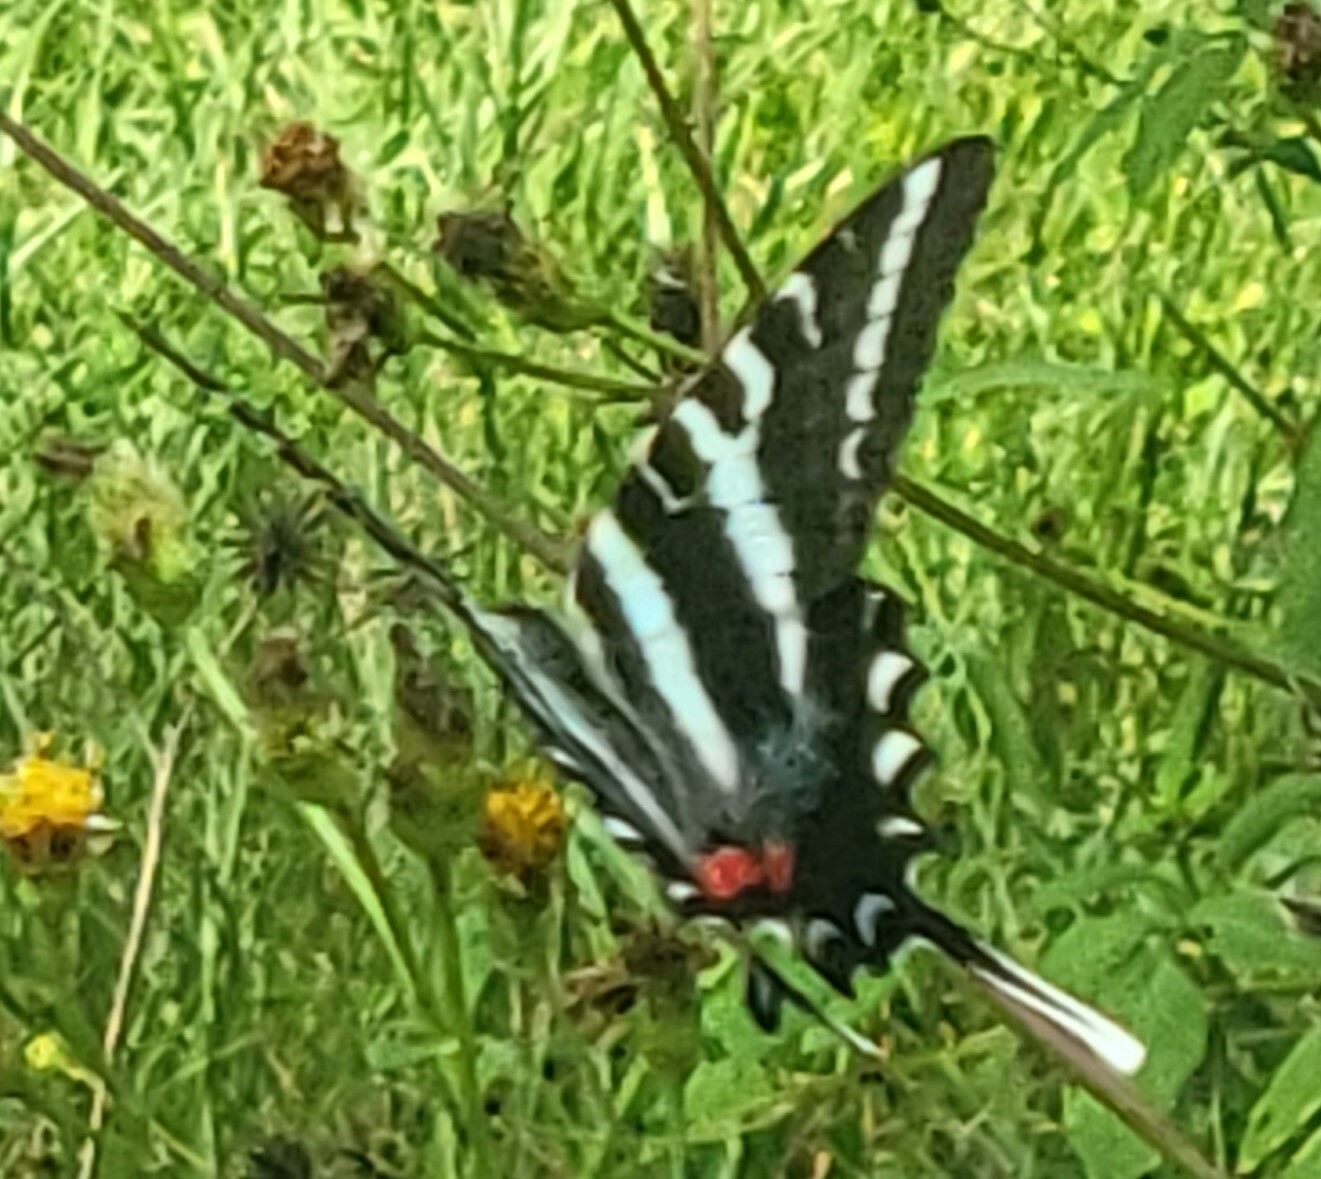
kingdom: Animalia
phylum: Arthropoda
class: Insecta
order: Lepidoptera
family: Papilionidae
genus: Protographium
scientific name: Protographium marcellus
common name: Zebra swallowtail
